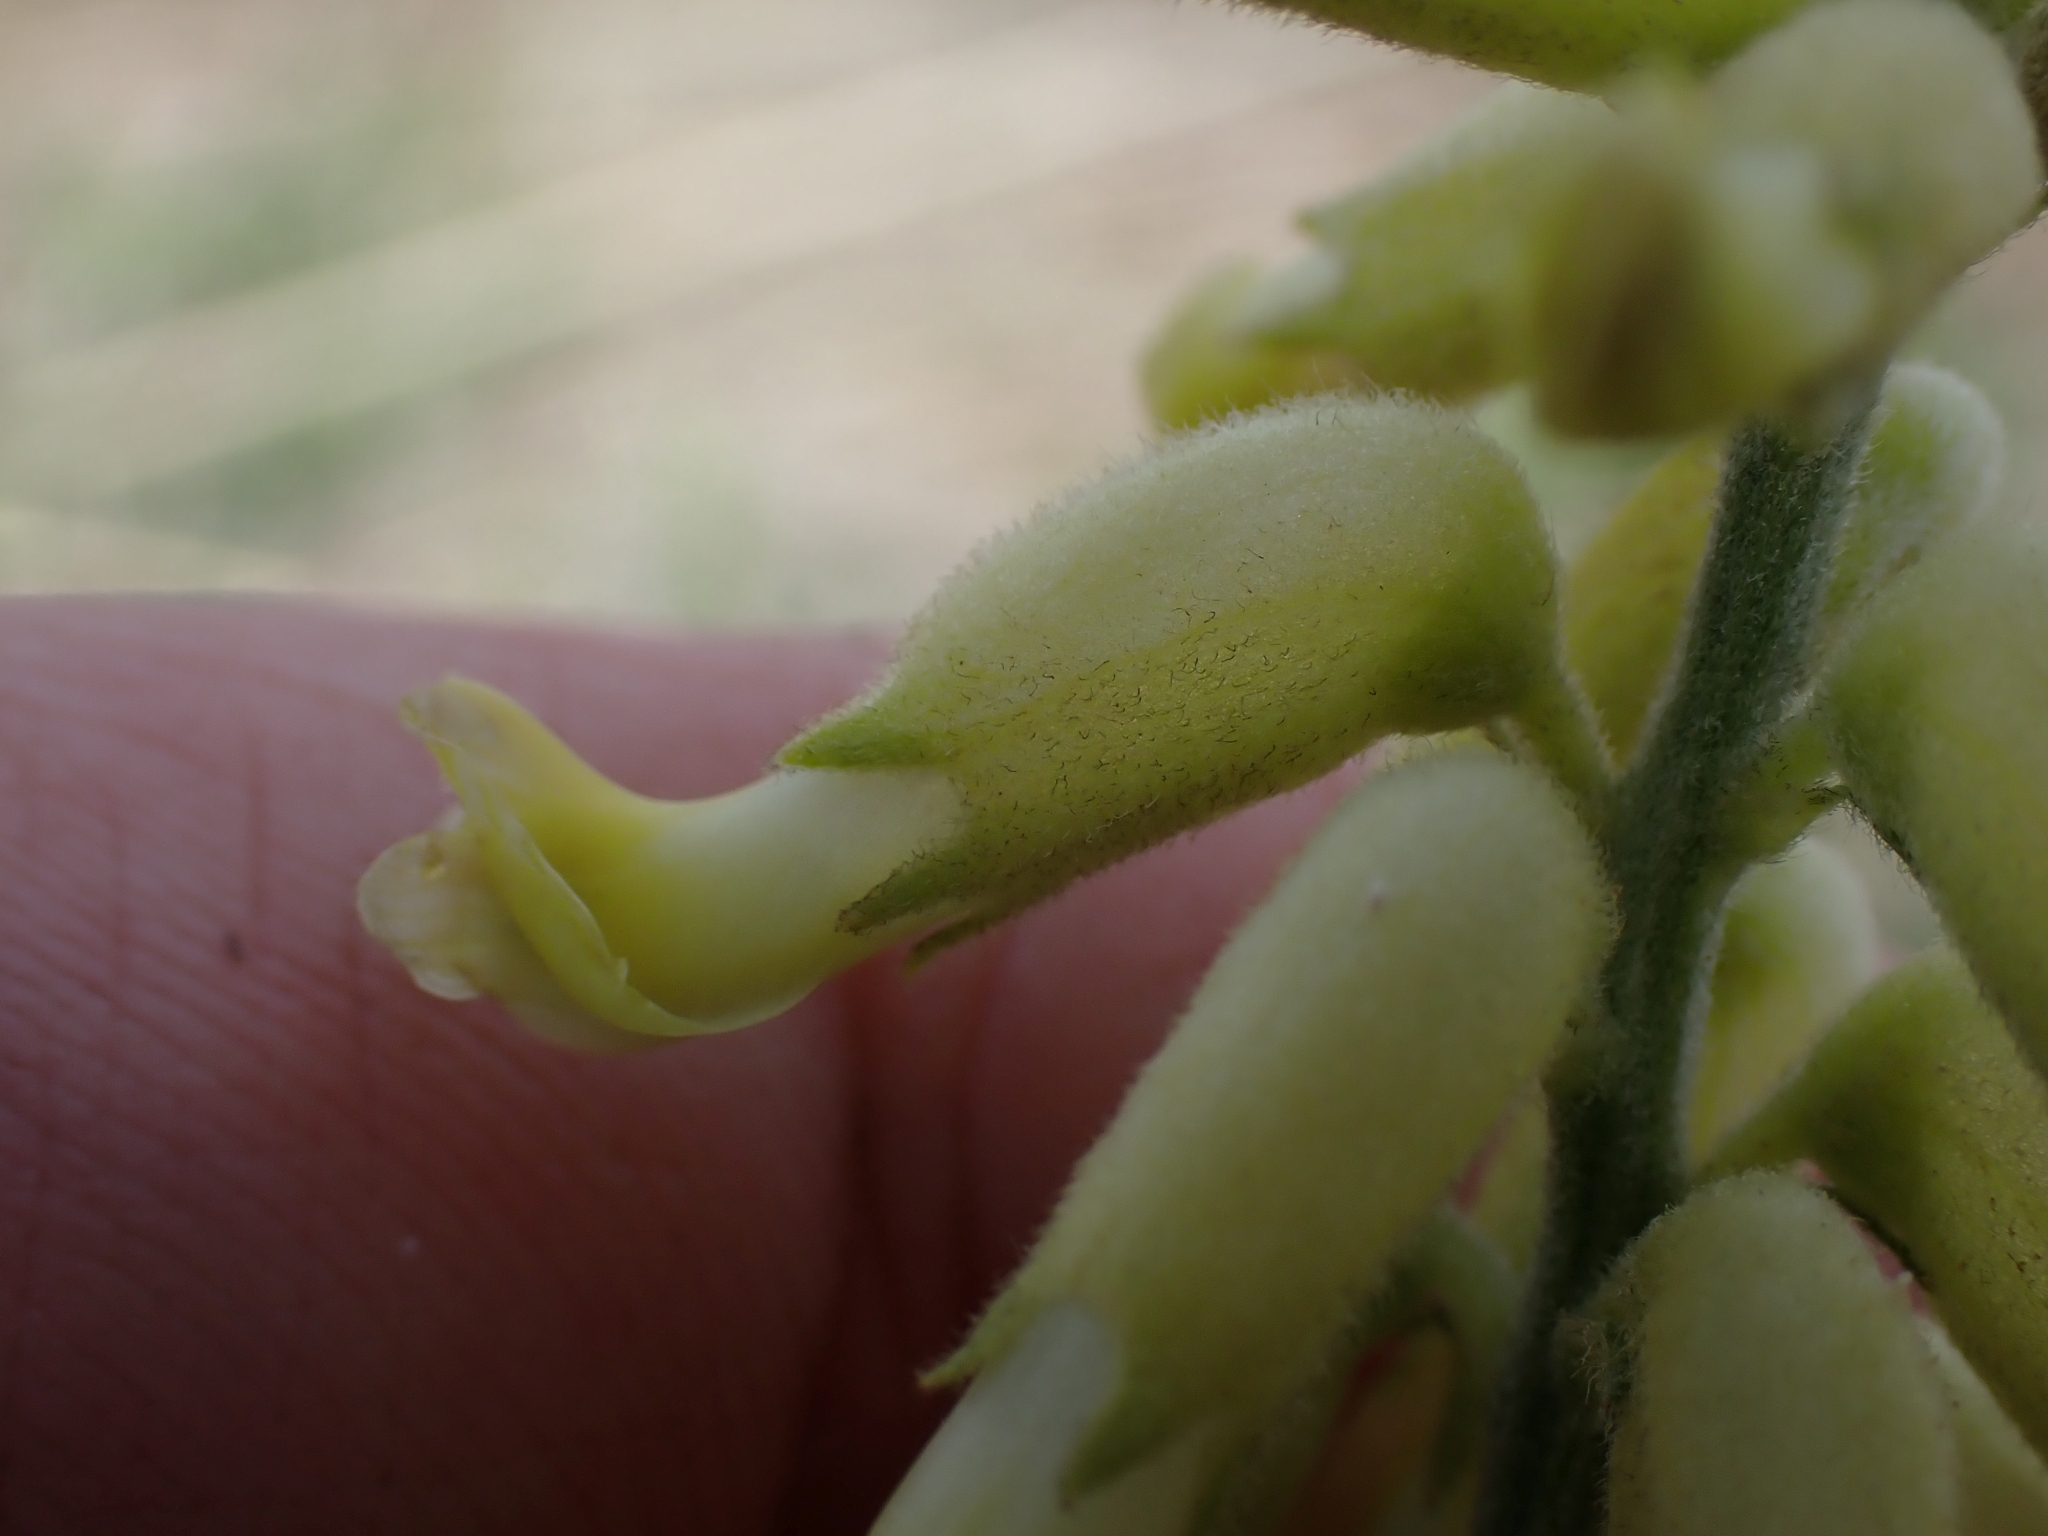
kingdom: Plantae
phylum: Tracheophyta
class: Magnoliopsida
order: Fabales
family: Fabaceae
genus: Astragalus
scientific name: Astragalus collinus
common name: Hill milk-vetch
